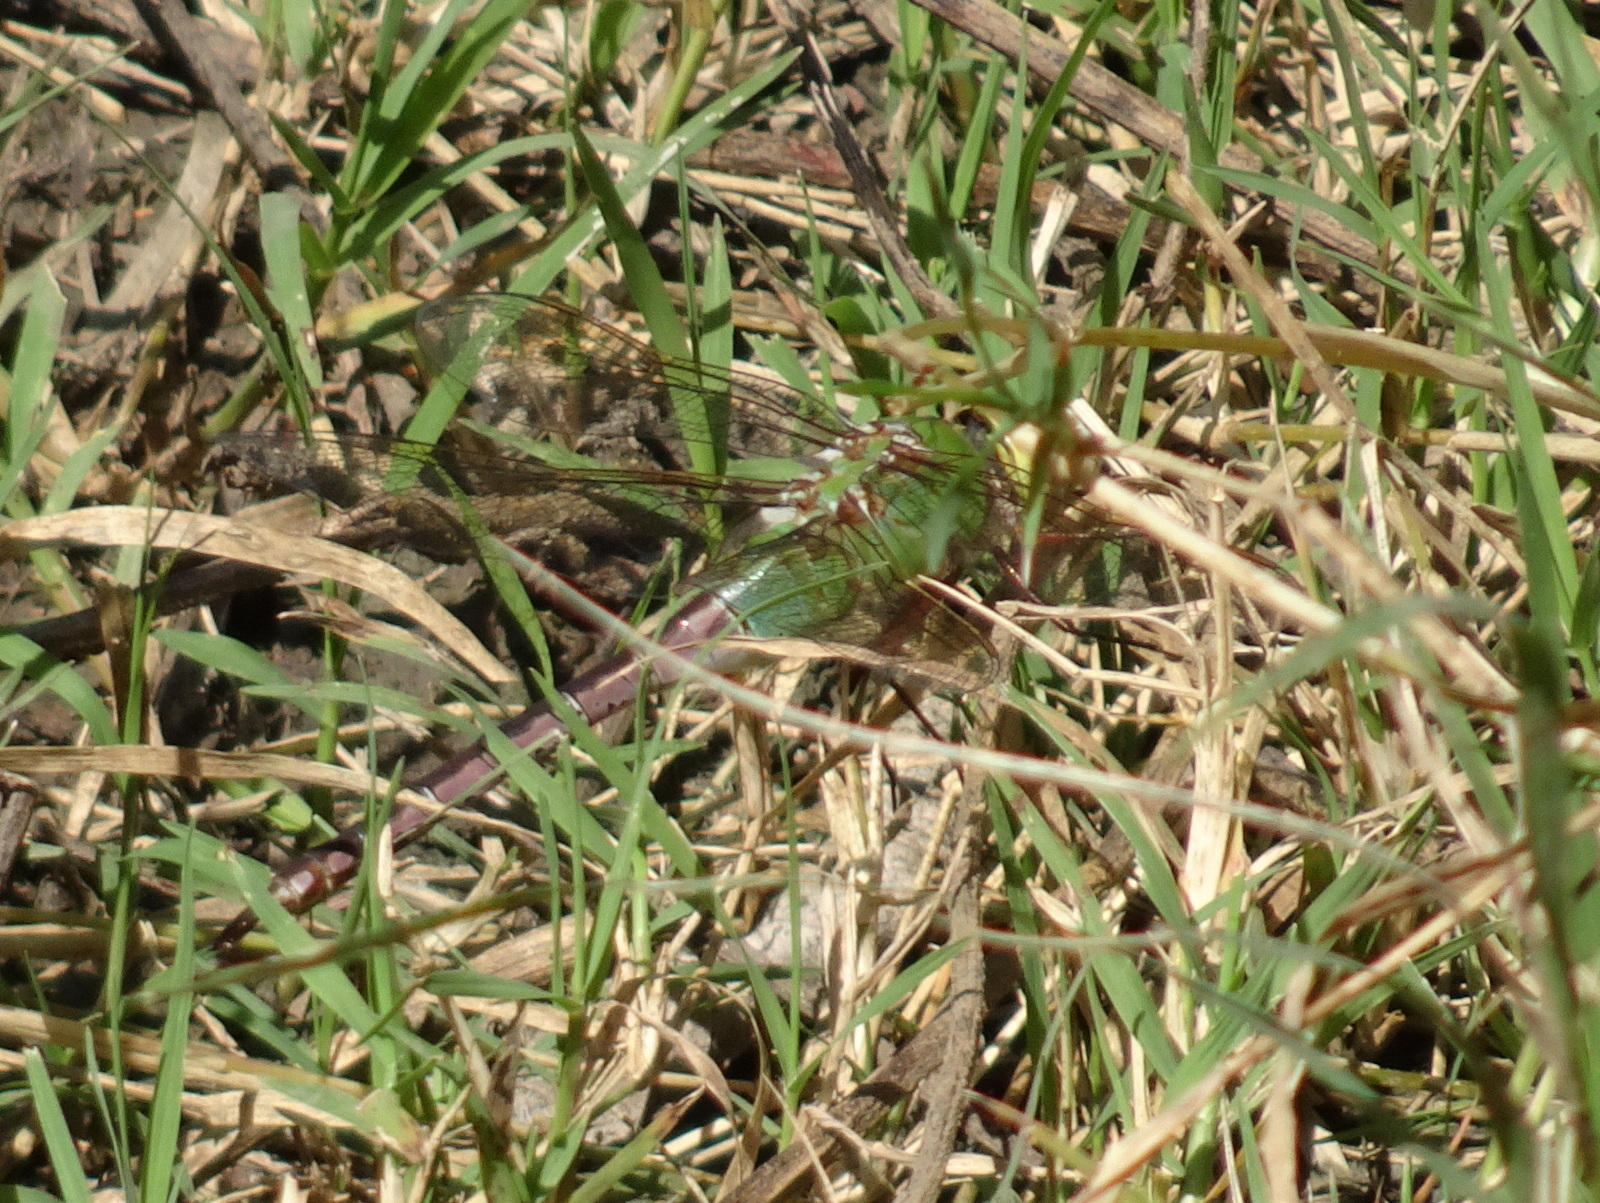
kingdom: Animalia
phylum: Arthropoda
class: Insecta
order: Odonata
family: Aeshnidae
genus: Anax
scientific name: Anax junius
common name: Common green darner
